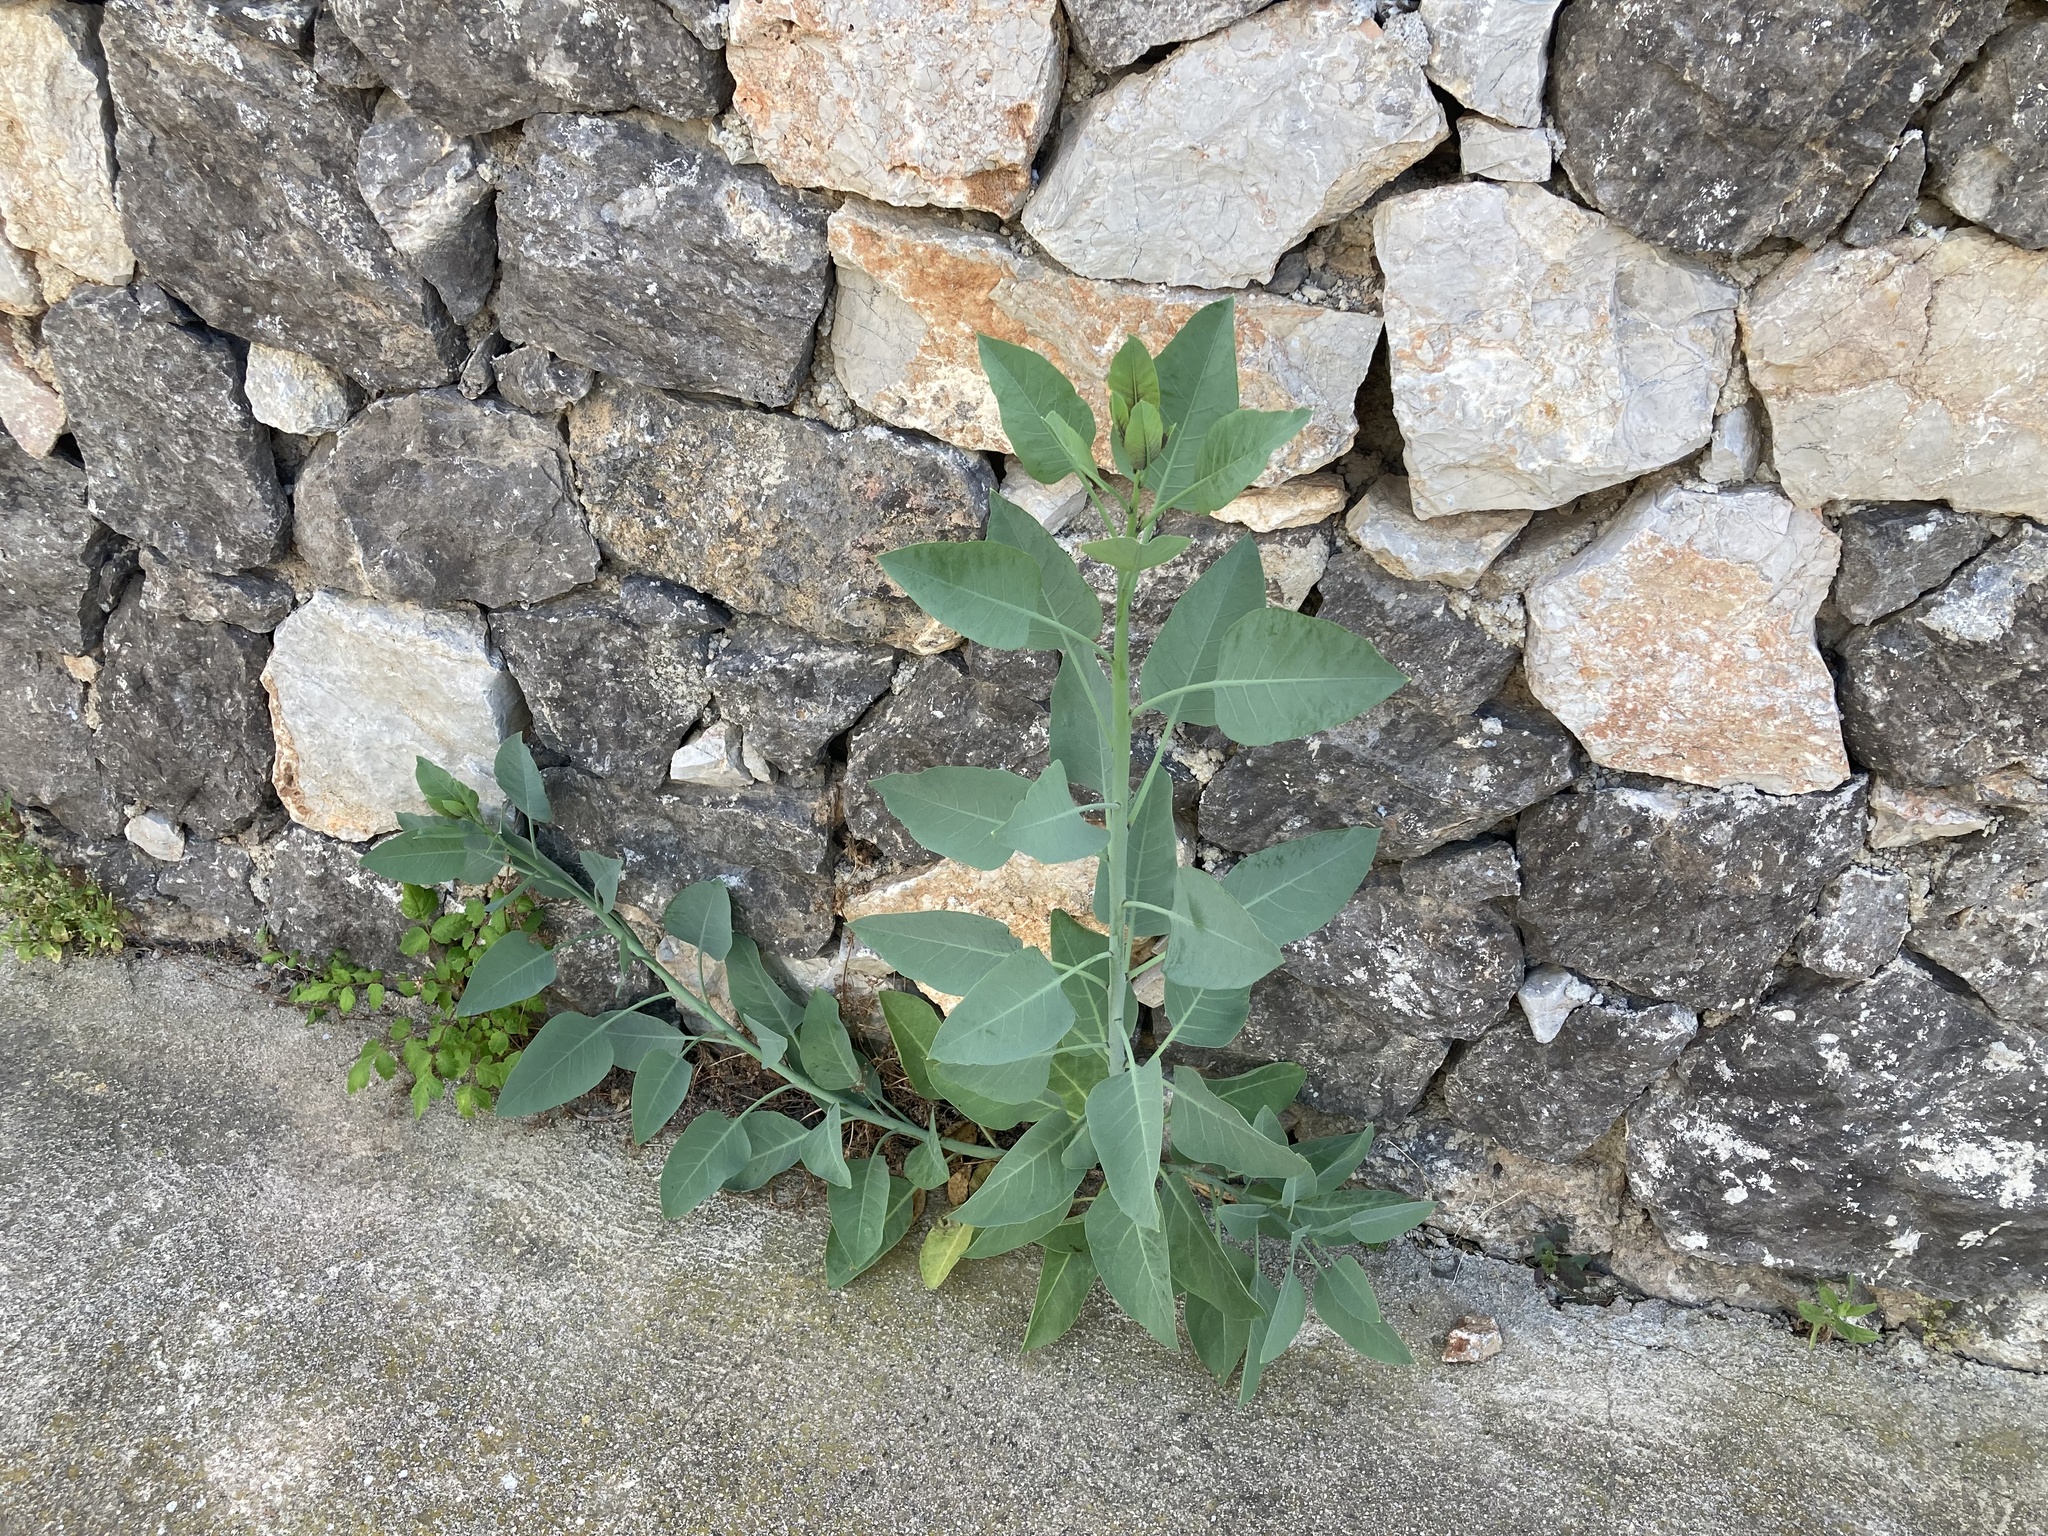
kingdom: Plantae
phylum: Tracheophyta
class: Magnoliopsida
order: Solanales
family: Solanaceae
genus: Nicotiana
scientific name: Nicotiana glauca
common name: Tree tobacco
